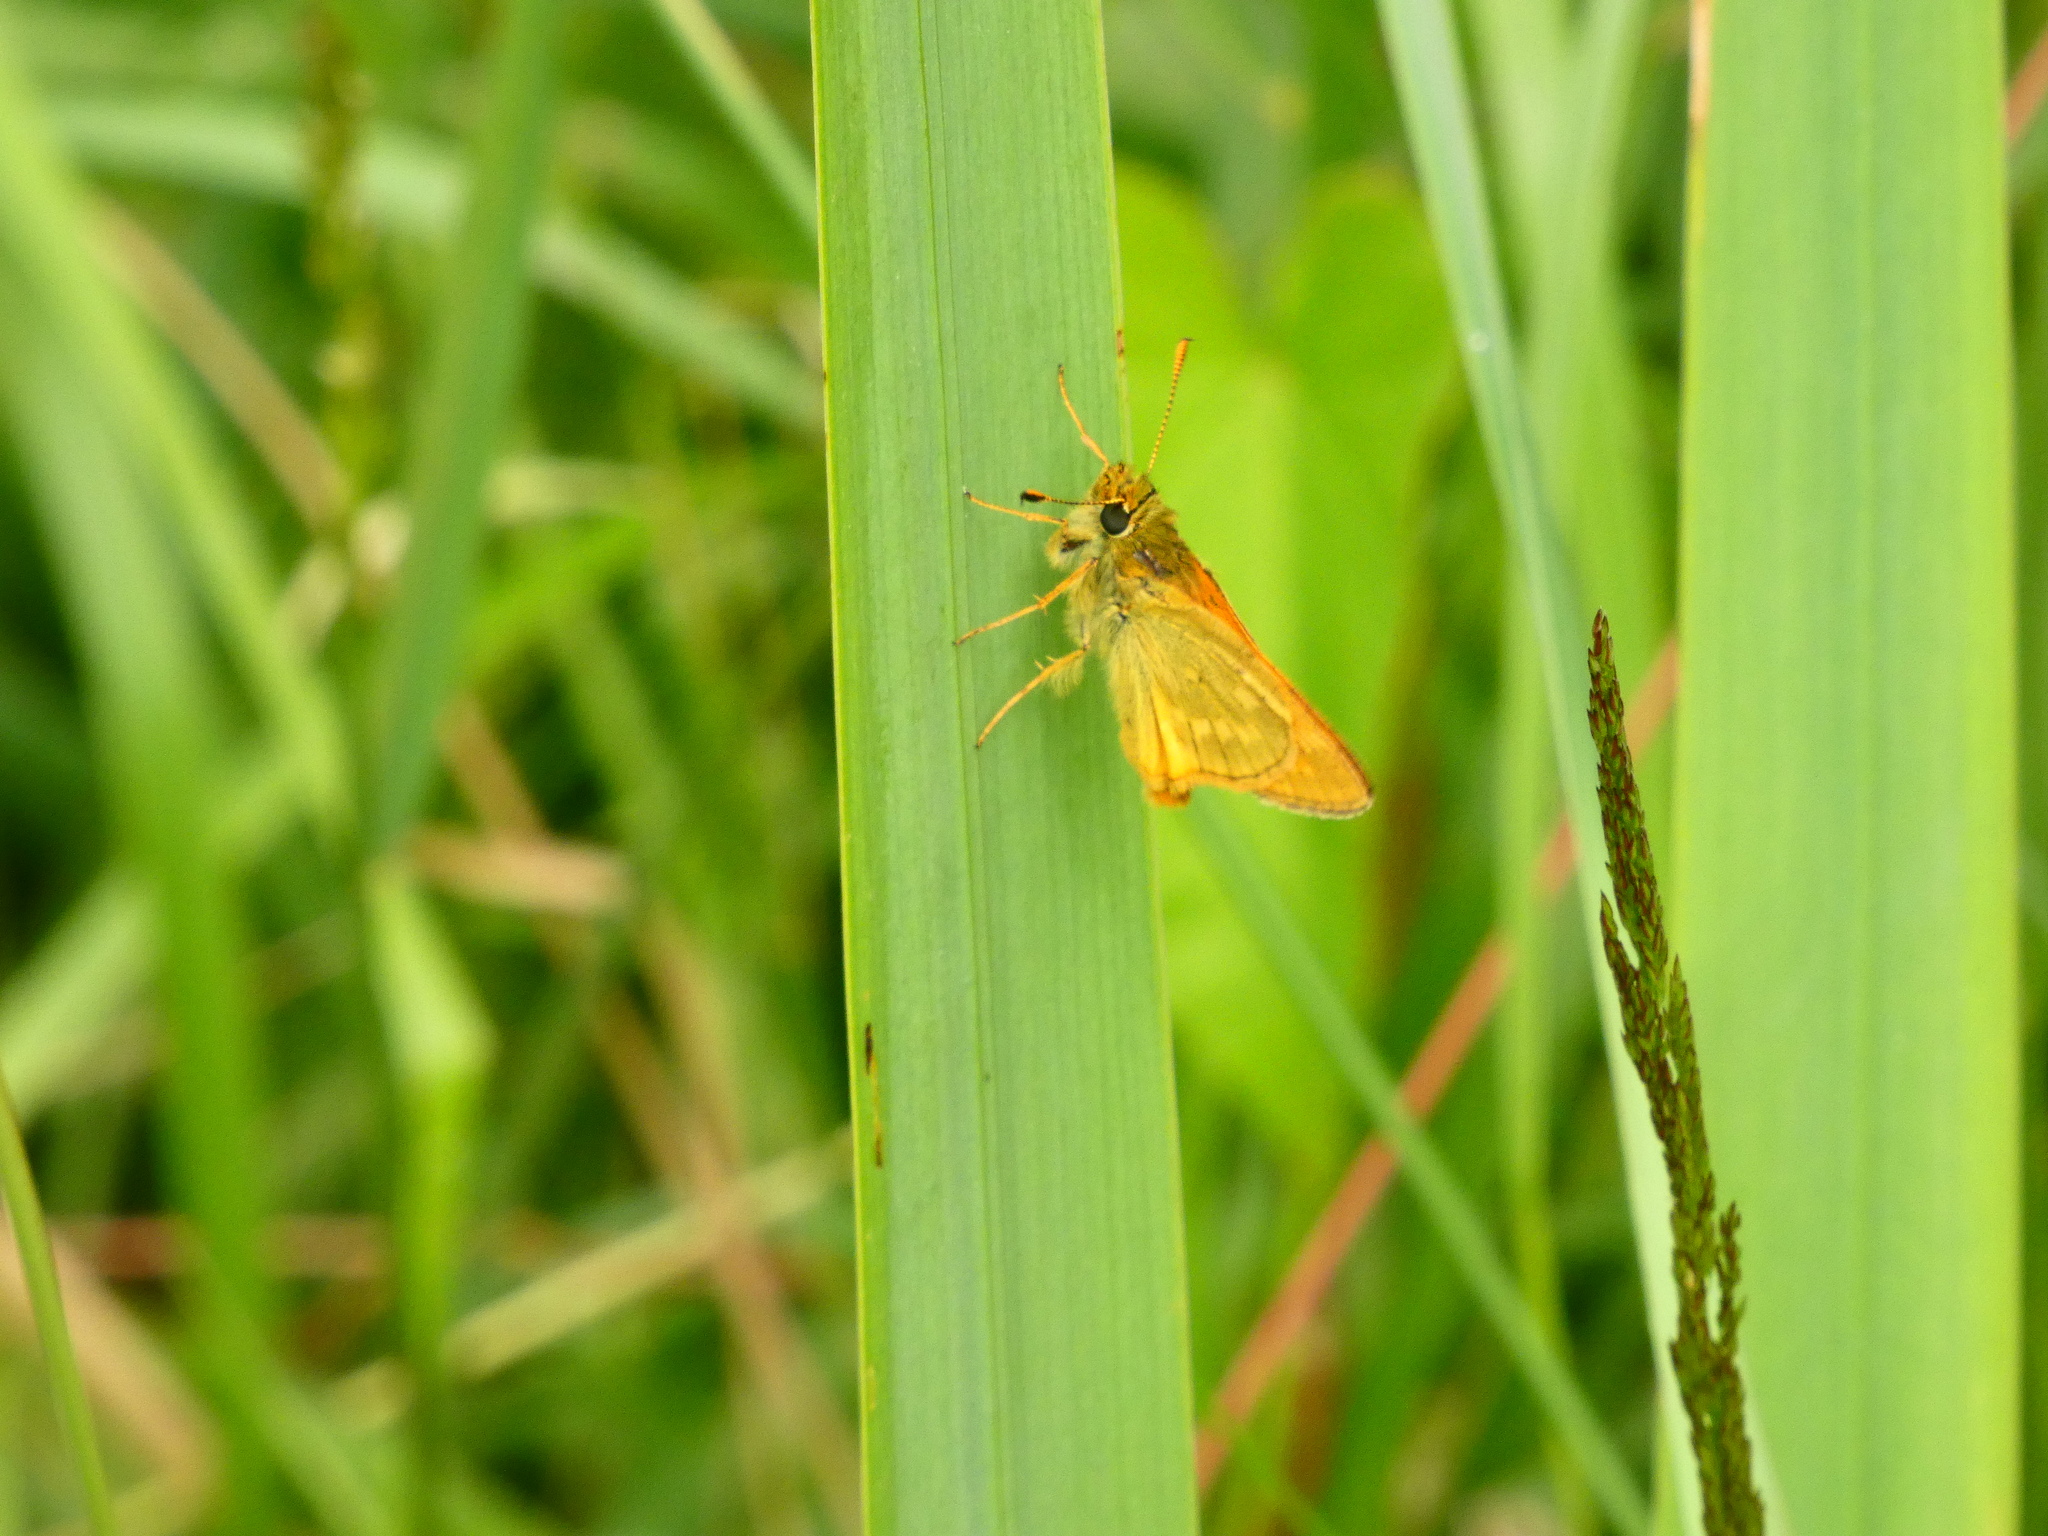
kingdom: Animalia
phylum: Arthropoda
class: Insecta
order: Lepidoptera
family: Hesperiidae
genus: Ochlodes
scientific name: Ochlodes venata
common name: Large skipper
